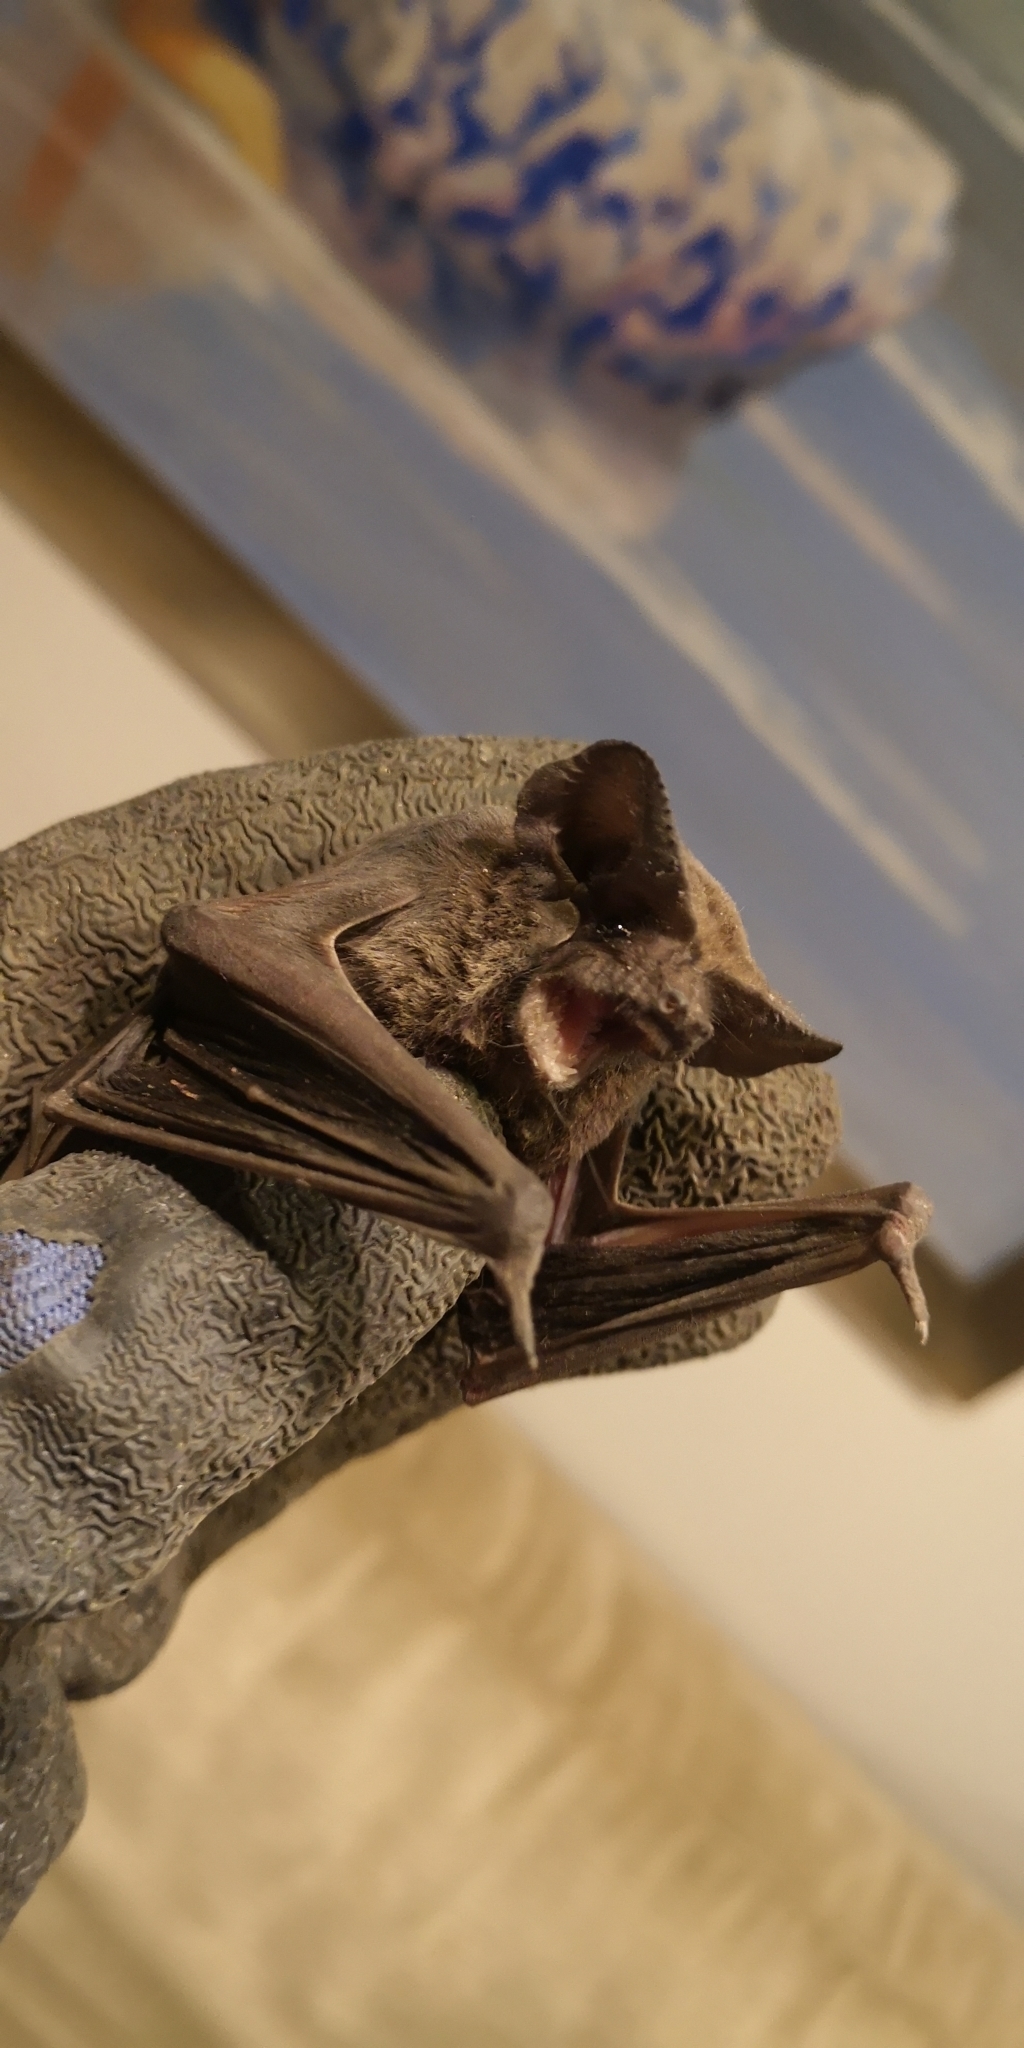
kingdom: Animalia
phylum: Chordata
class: Mammalia
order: Chiroptera
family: Molossidae
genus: Tadarida
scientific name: Tadarida brasiliensis
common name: Mexican free-tailed bat
